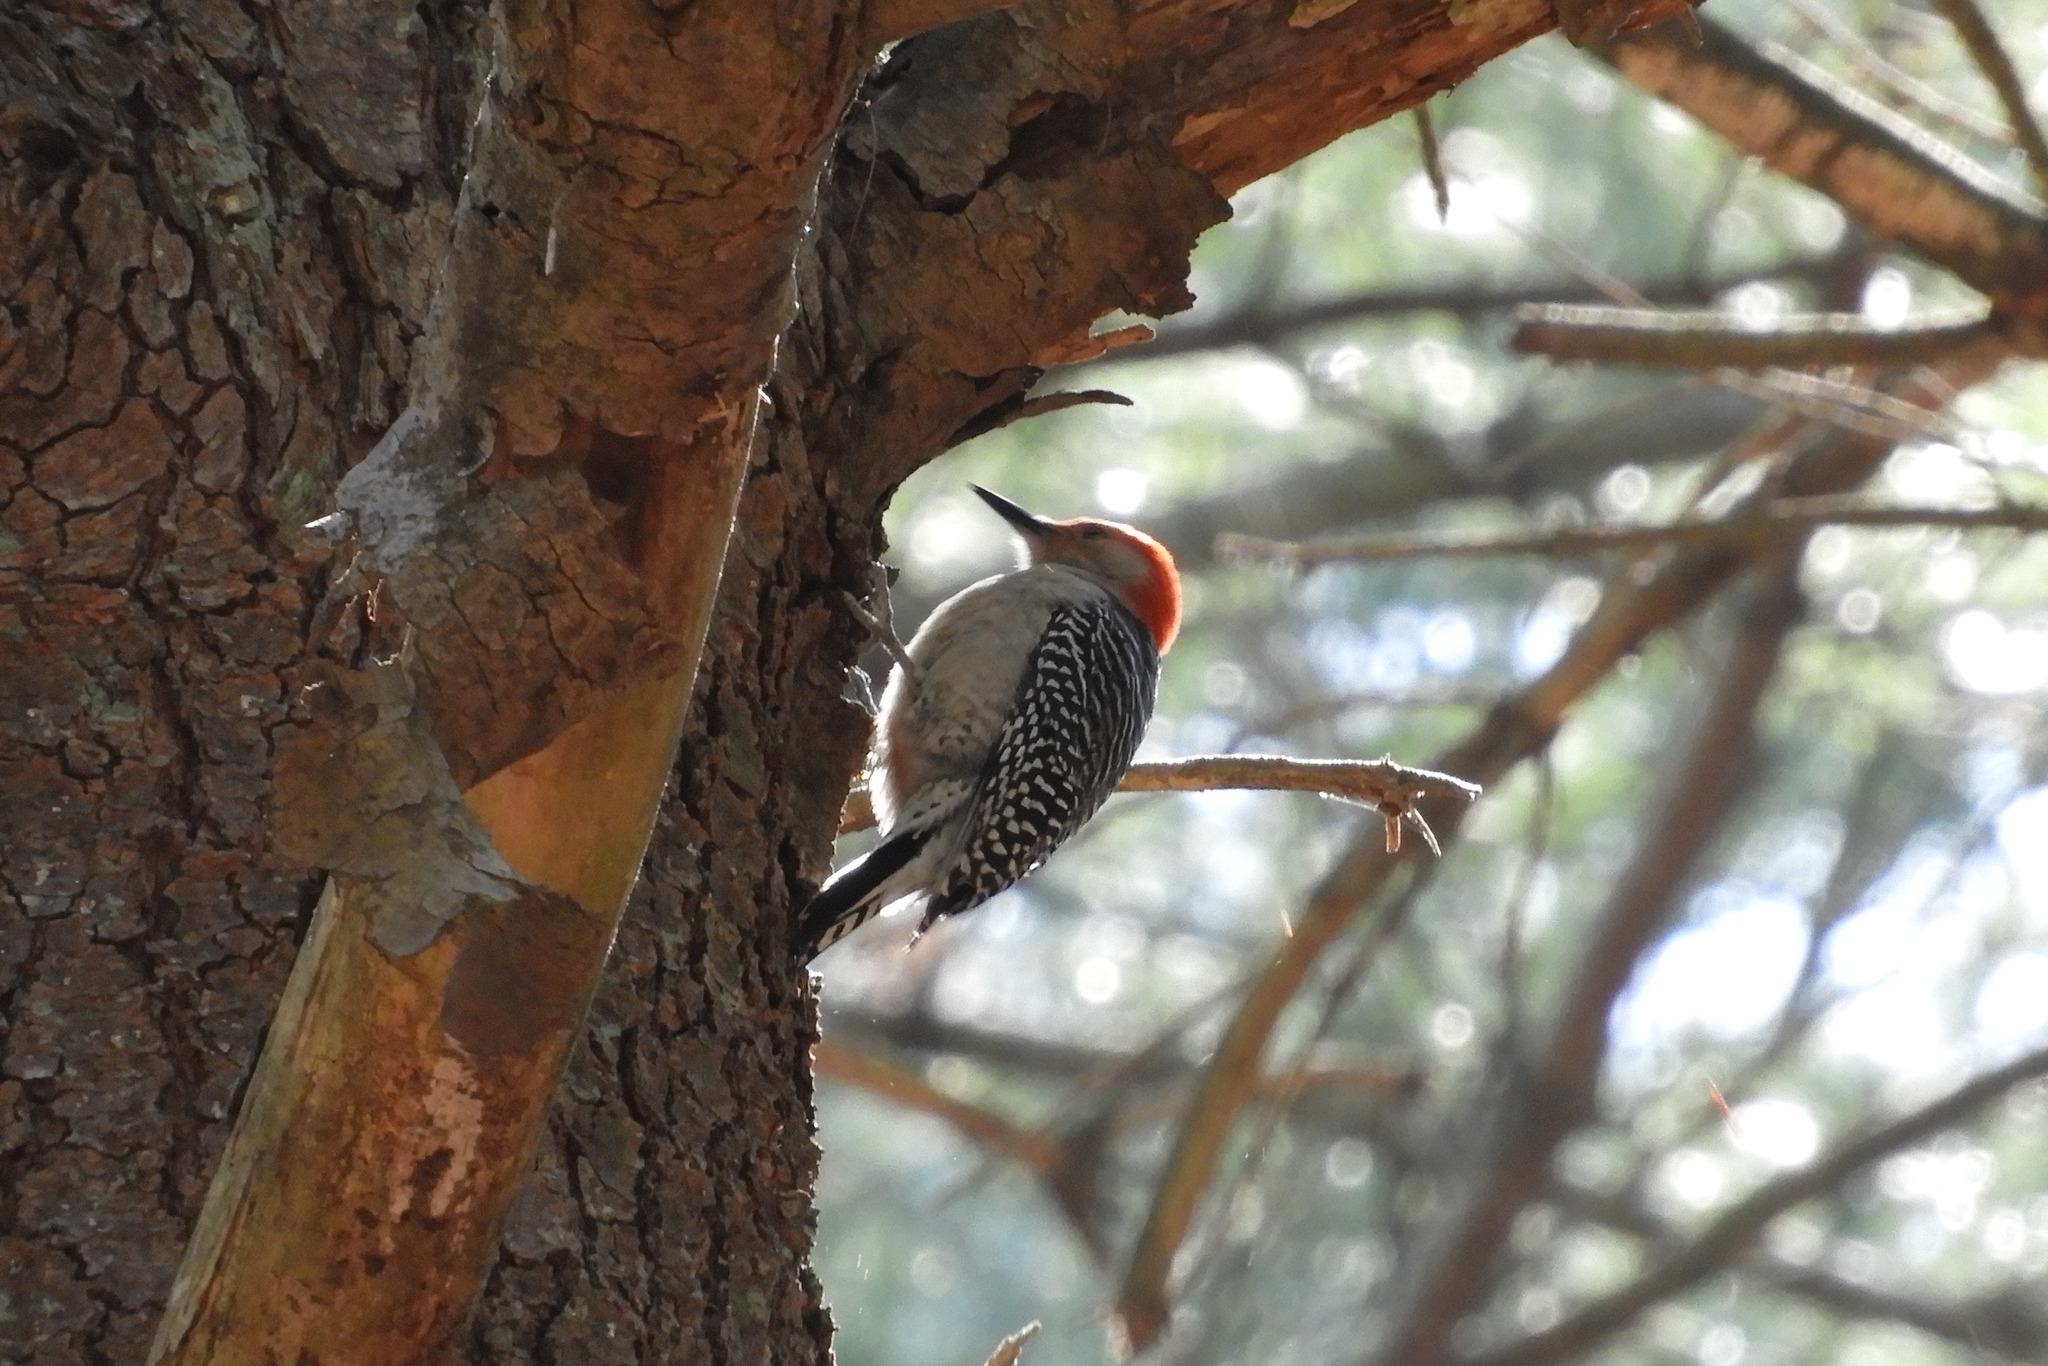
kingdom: Animalia
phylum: Chordata
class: Aves
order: Piciformes
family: Picidae
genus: Melanerpes
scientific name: Melanerpes carolinus
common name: Red-bellied woodpecker
